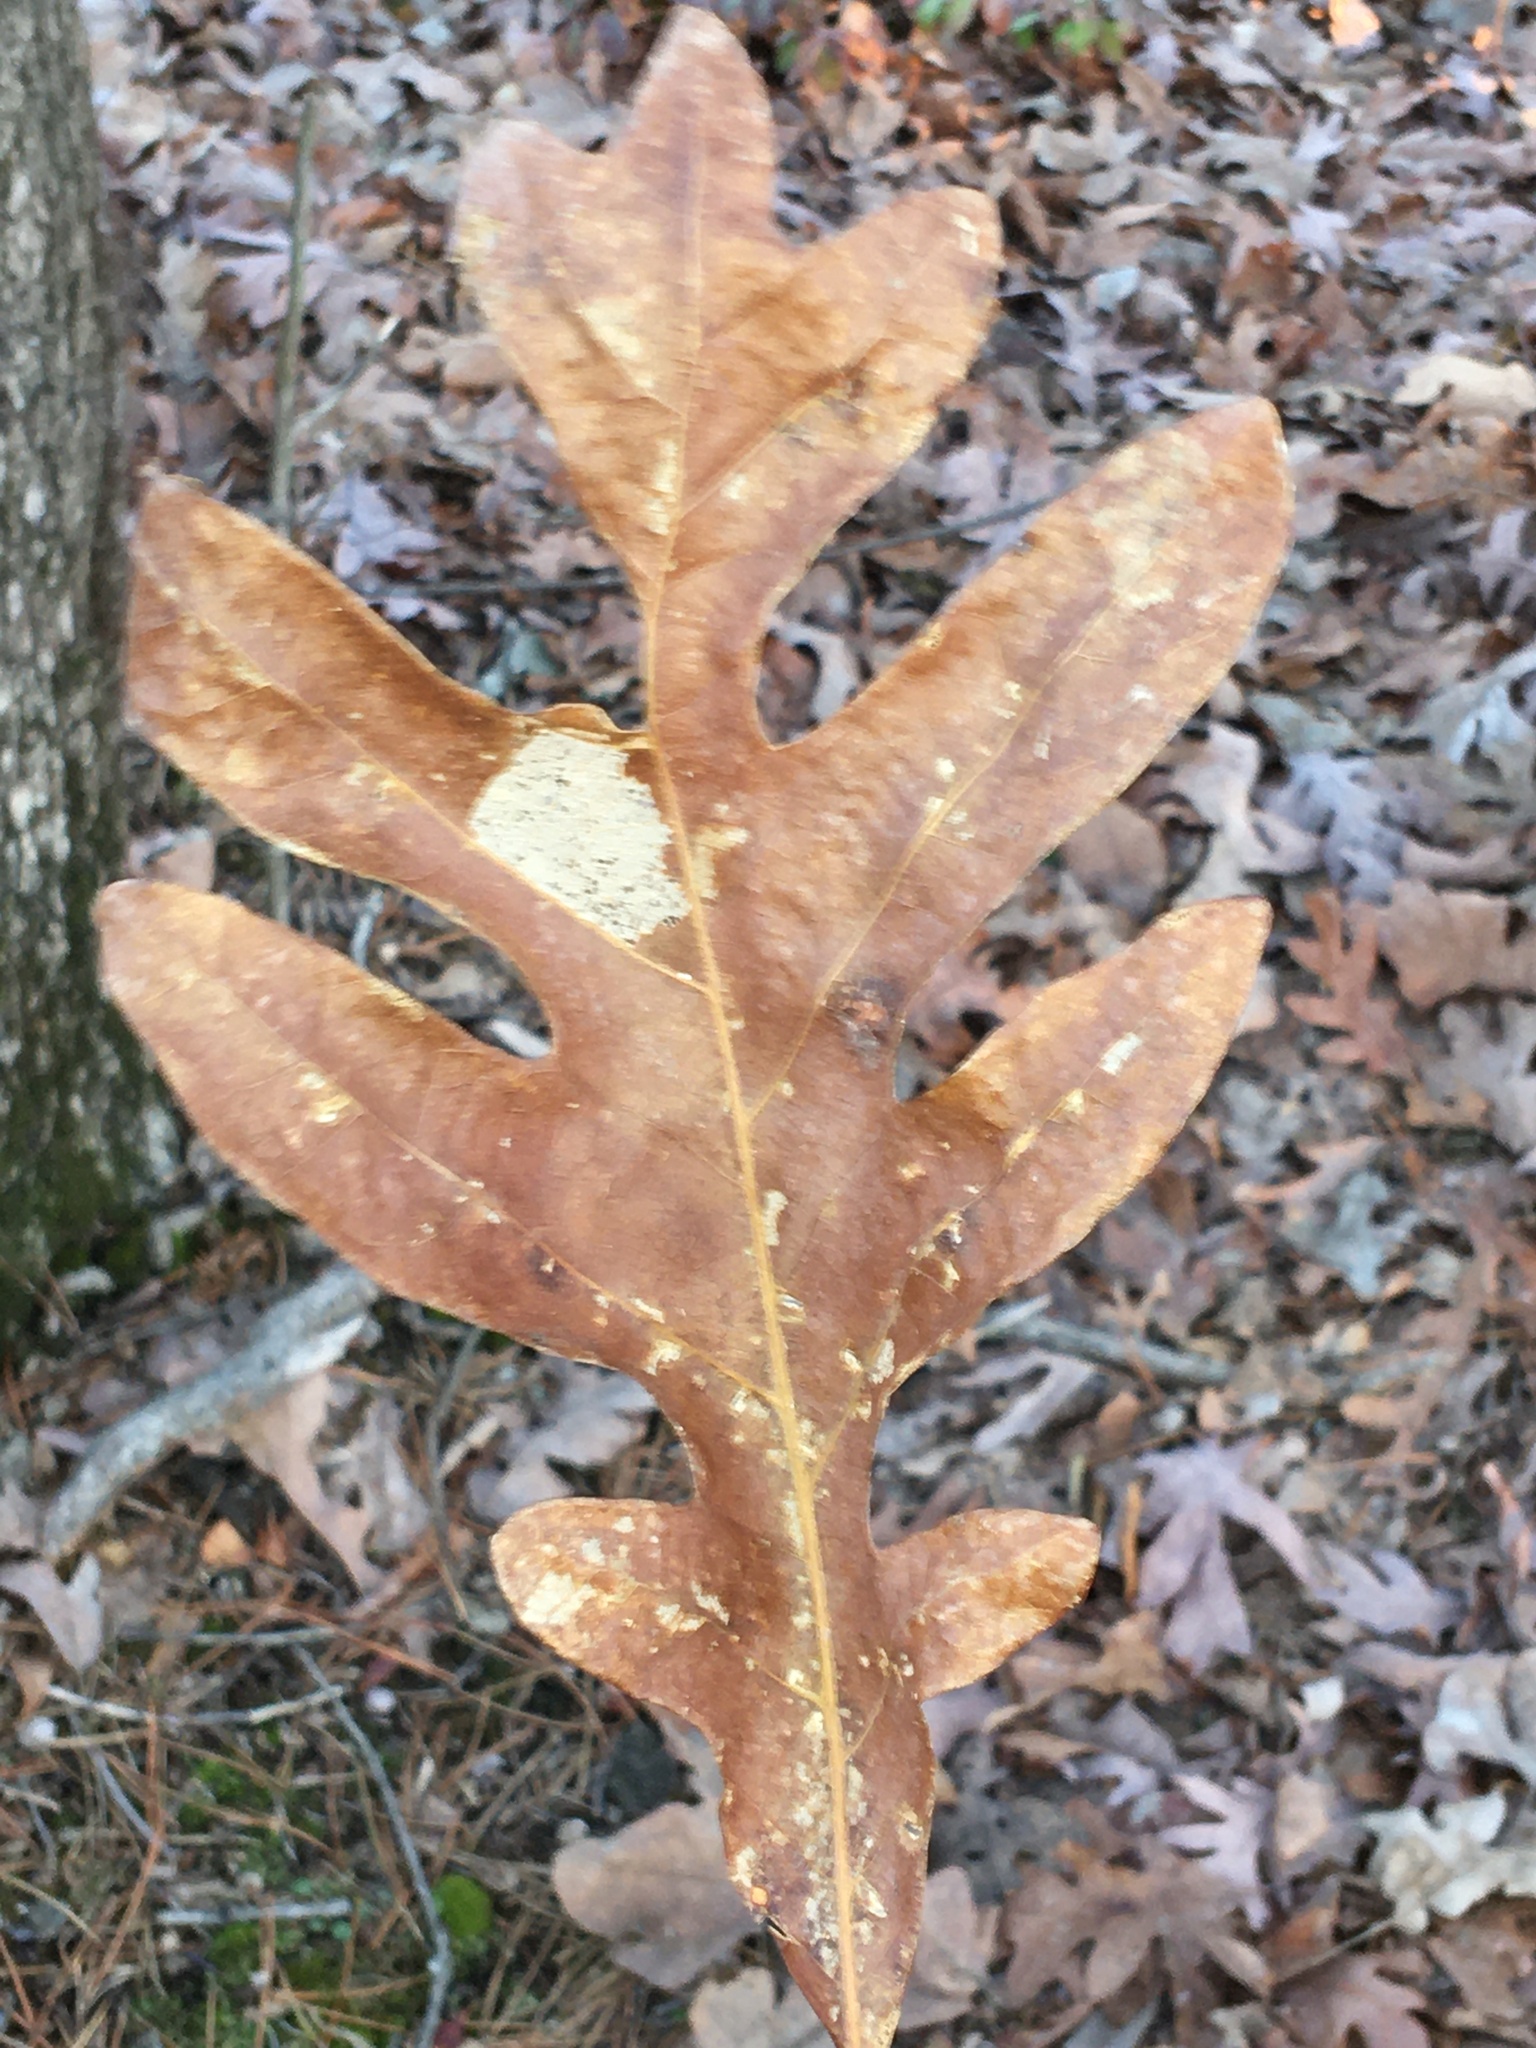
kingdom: Plantae
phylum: Tracheophyta
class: Magnoliopsida
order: Fagales
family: Fagaceae
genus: Quercus
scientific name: Quercus alba
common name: White oak
